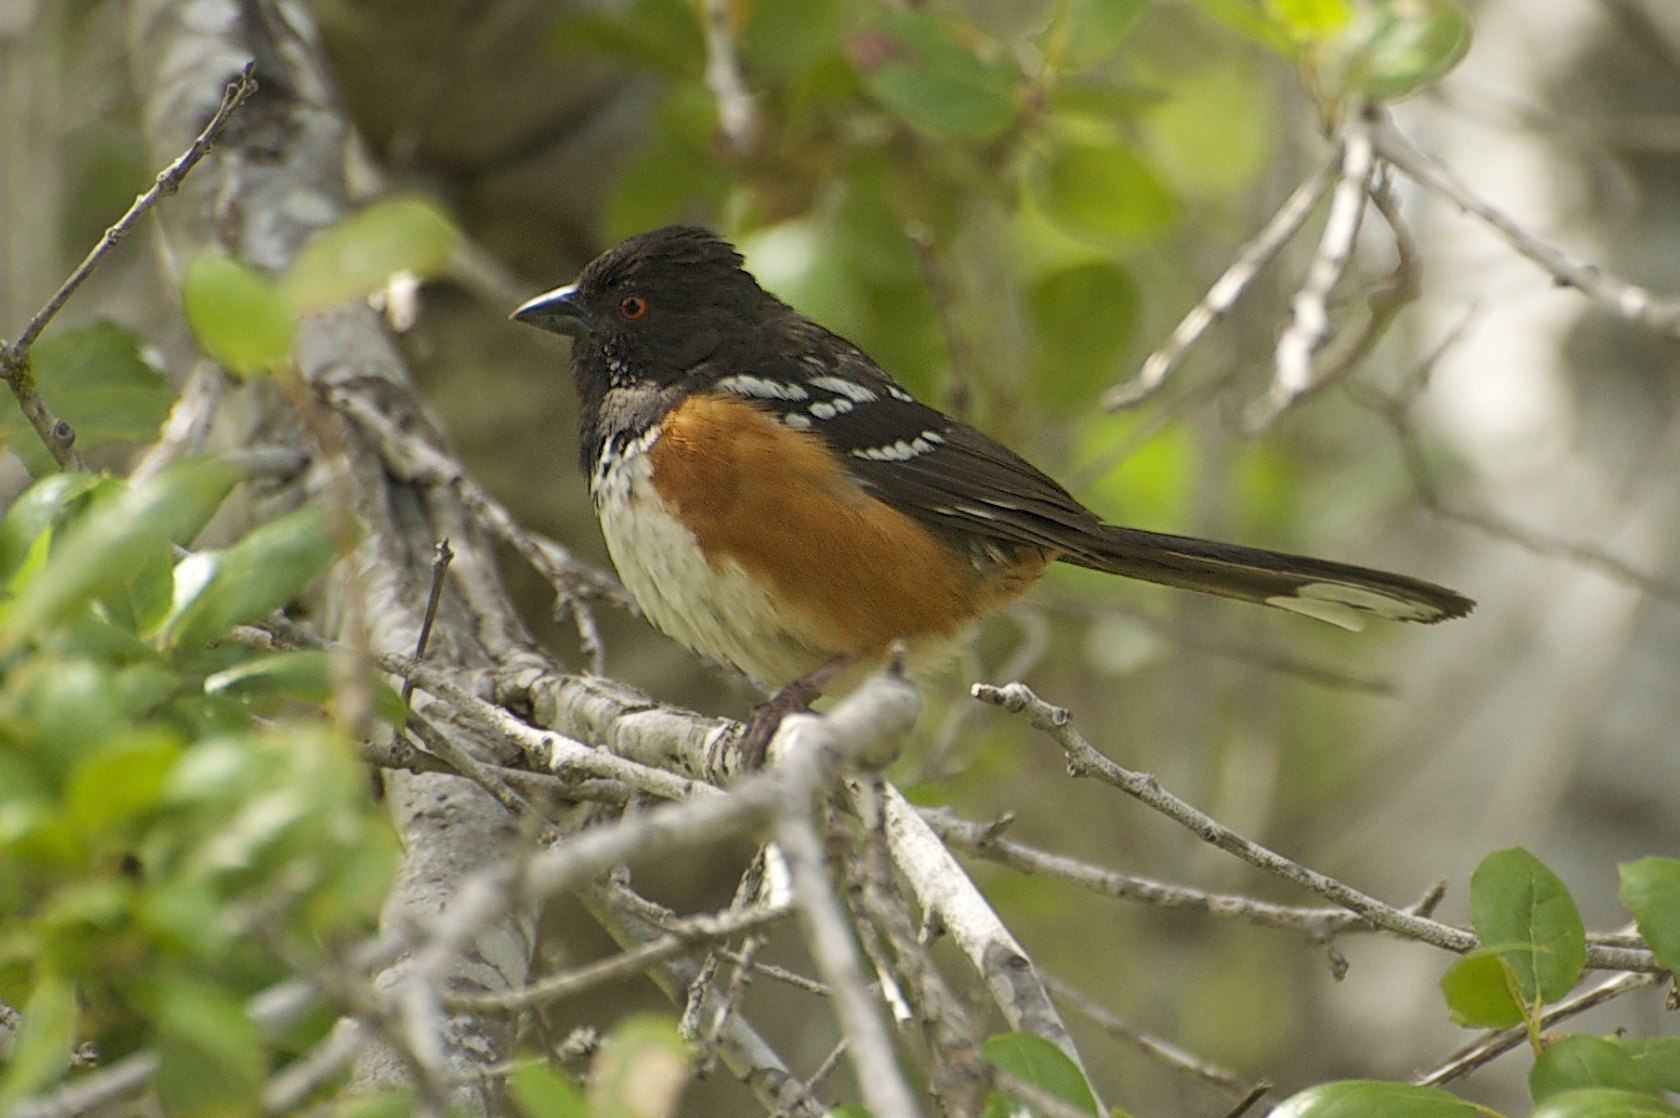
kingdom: Animalia
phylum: Chordata
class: Aves
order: Passeriformes
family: Passerellidae
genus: Pipilo
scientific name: Pipilo maculatus
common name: Spotted towhee
